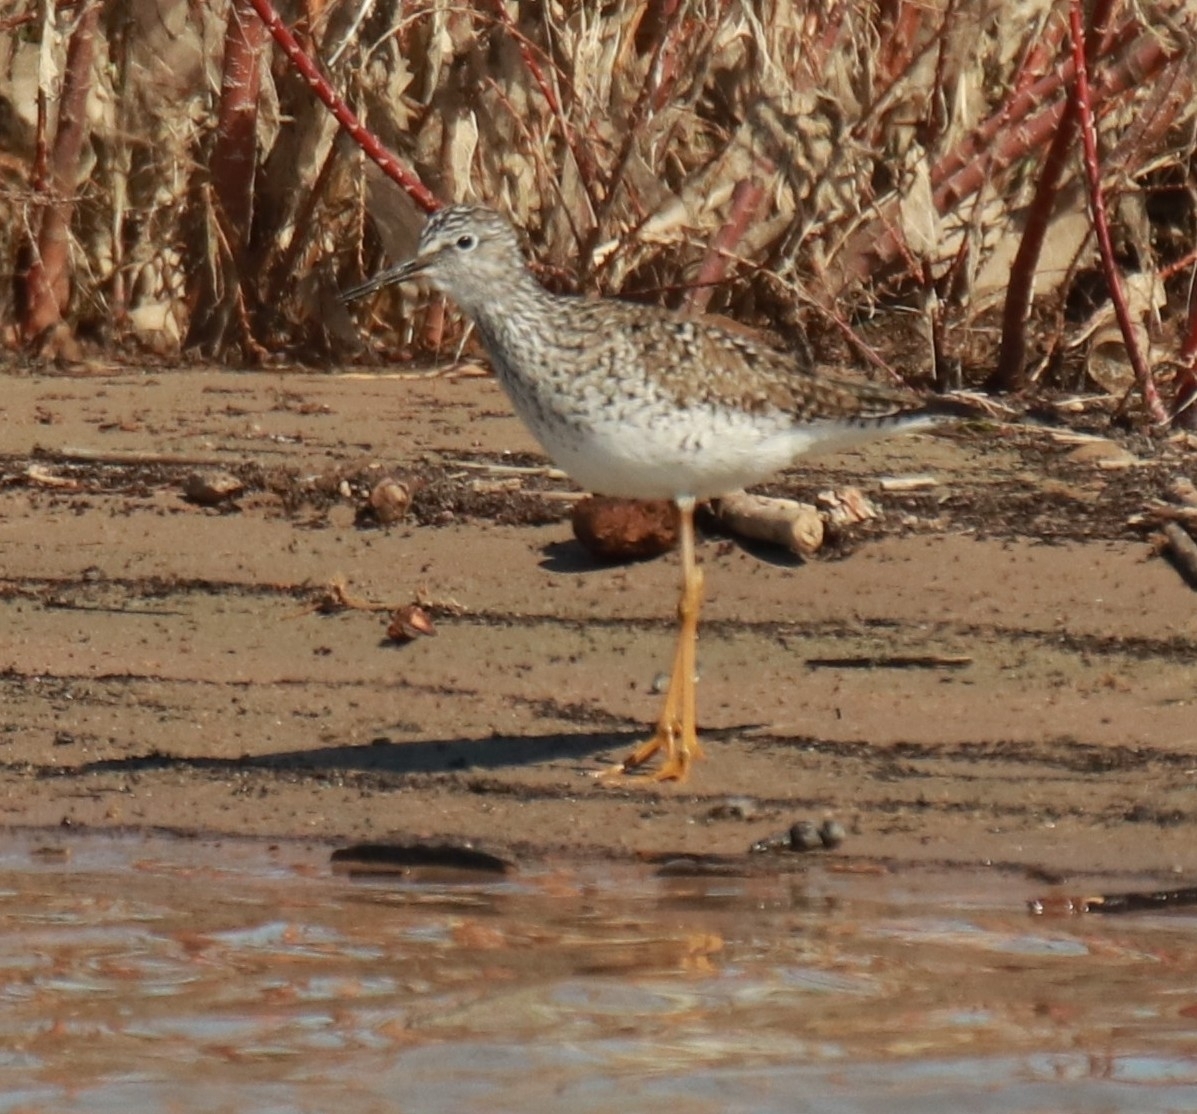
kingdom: Animalia
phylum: Chordata
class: Aves
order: Charadriiformes
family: Scolopacidae
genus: Tringa
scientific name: Tringa flavipes
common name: Lesser yellowlegs
